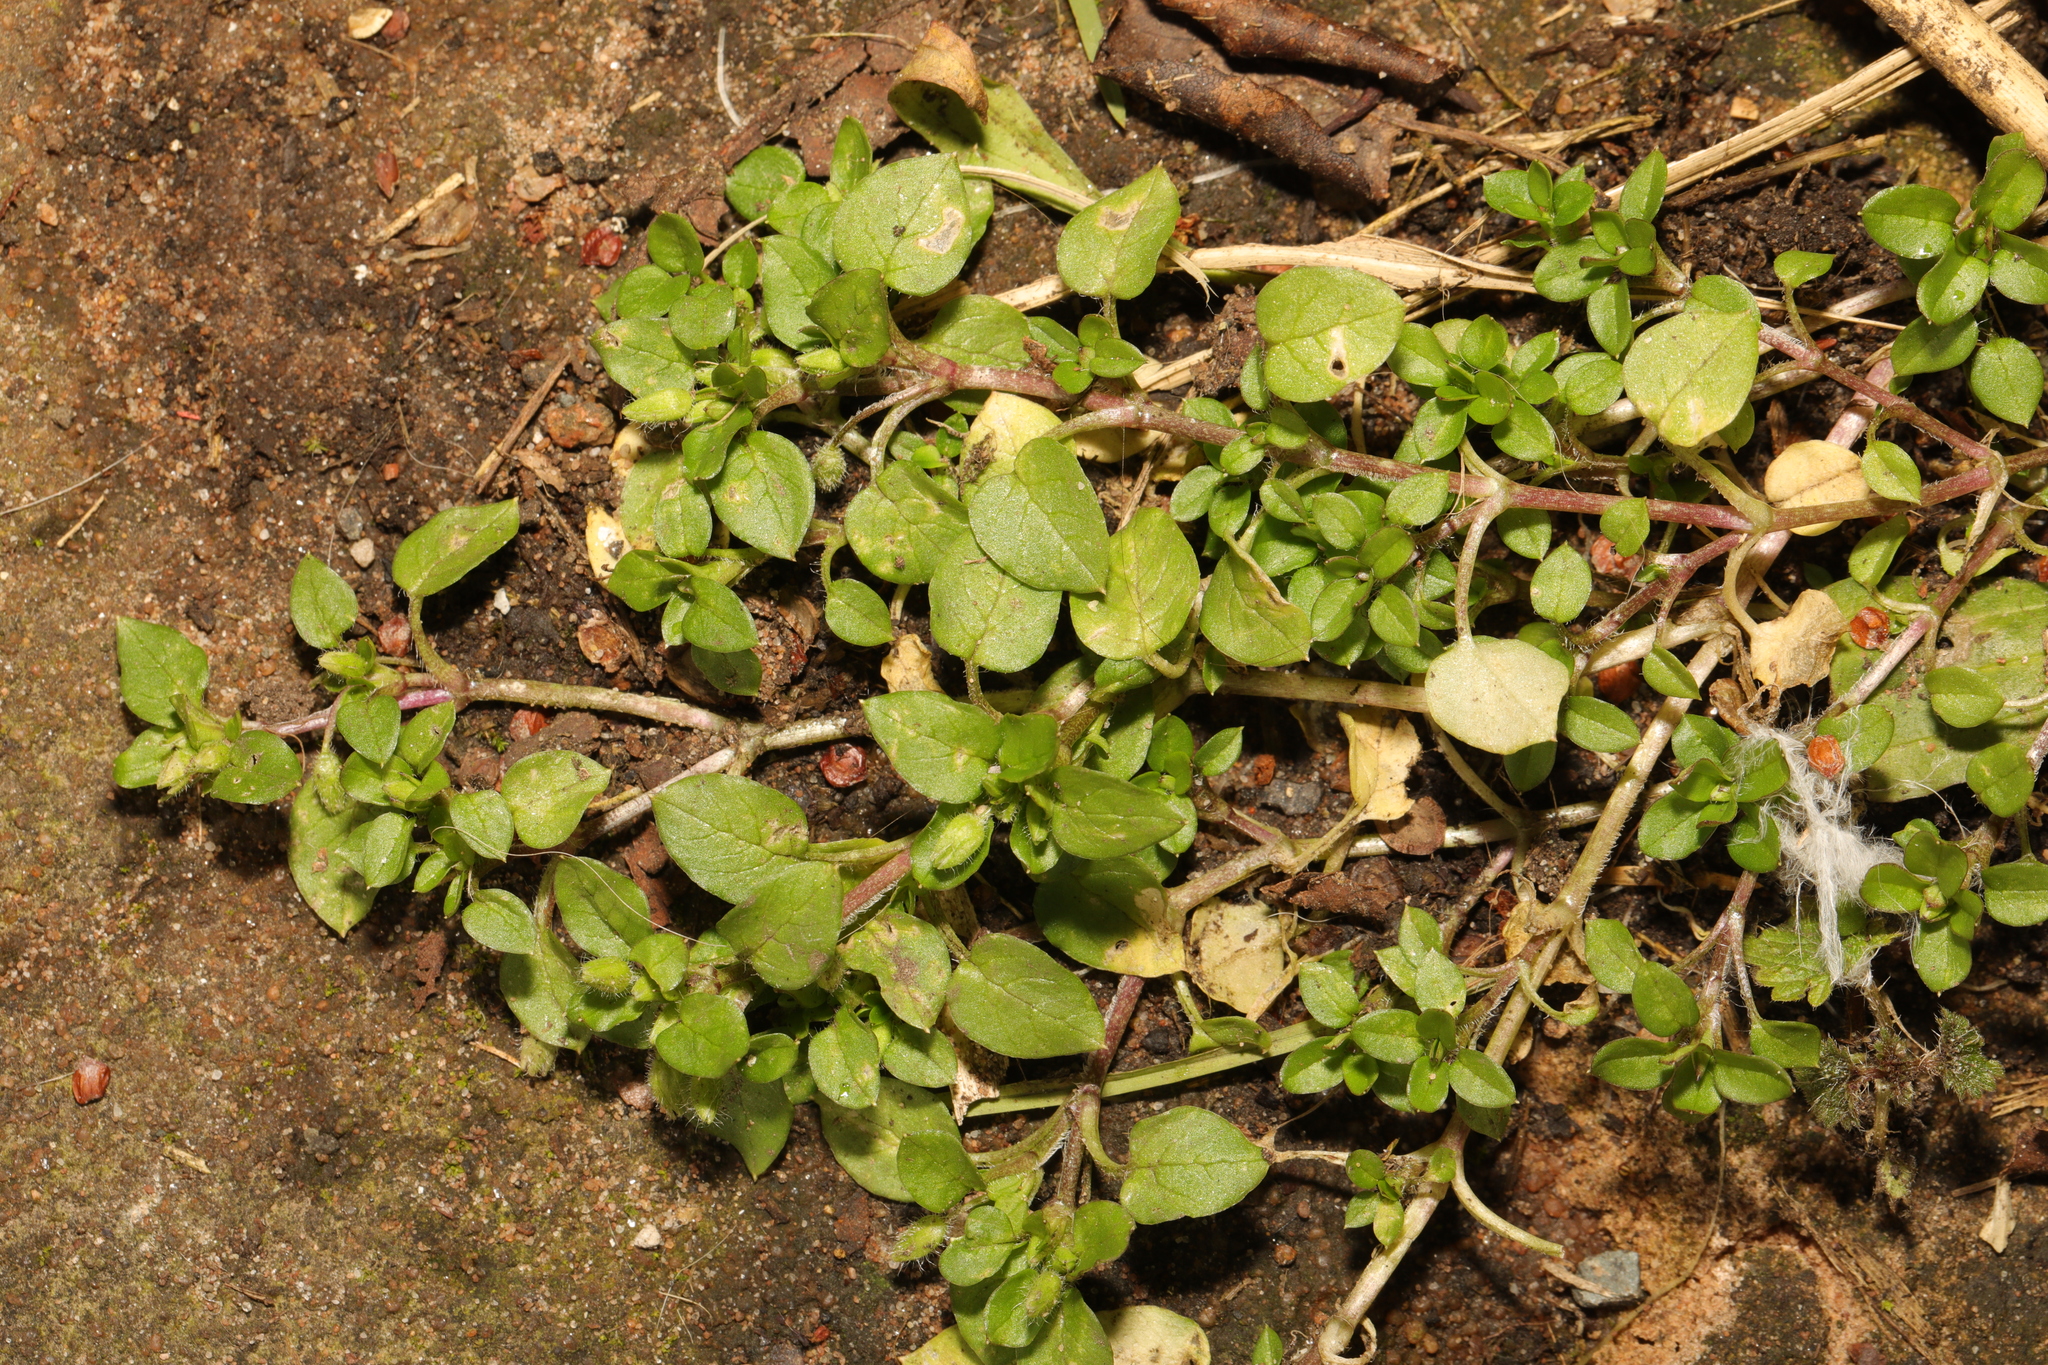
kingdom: Plantae
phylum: Tracheophyta
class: Magnoliopsida
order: Caryophyllales
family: Caryophyllaceae
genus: Stellaria
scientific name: Stellaria media
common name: Common chickweed
